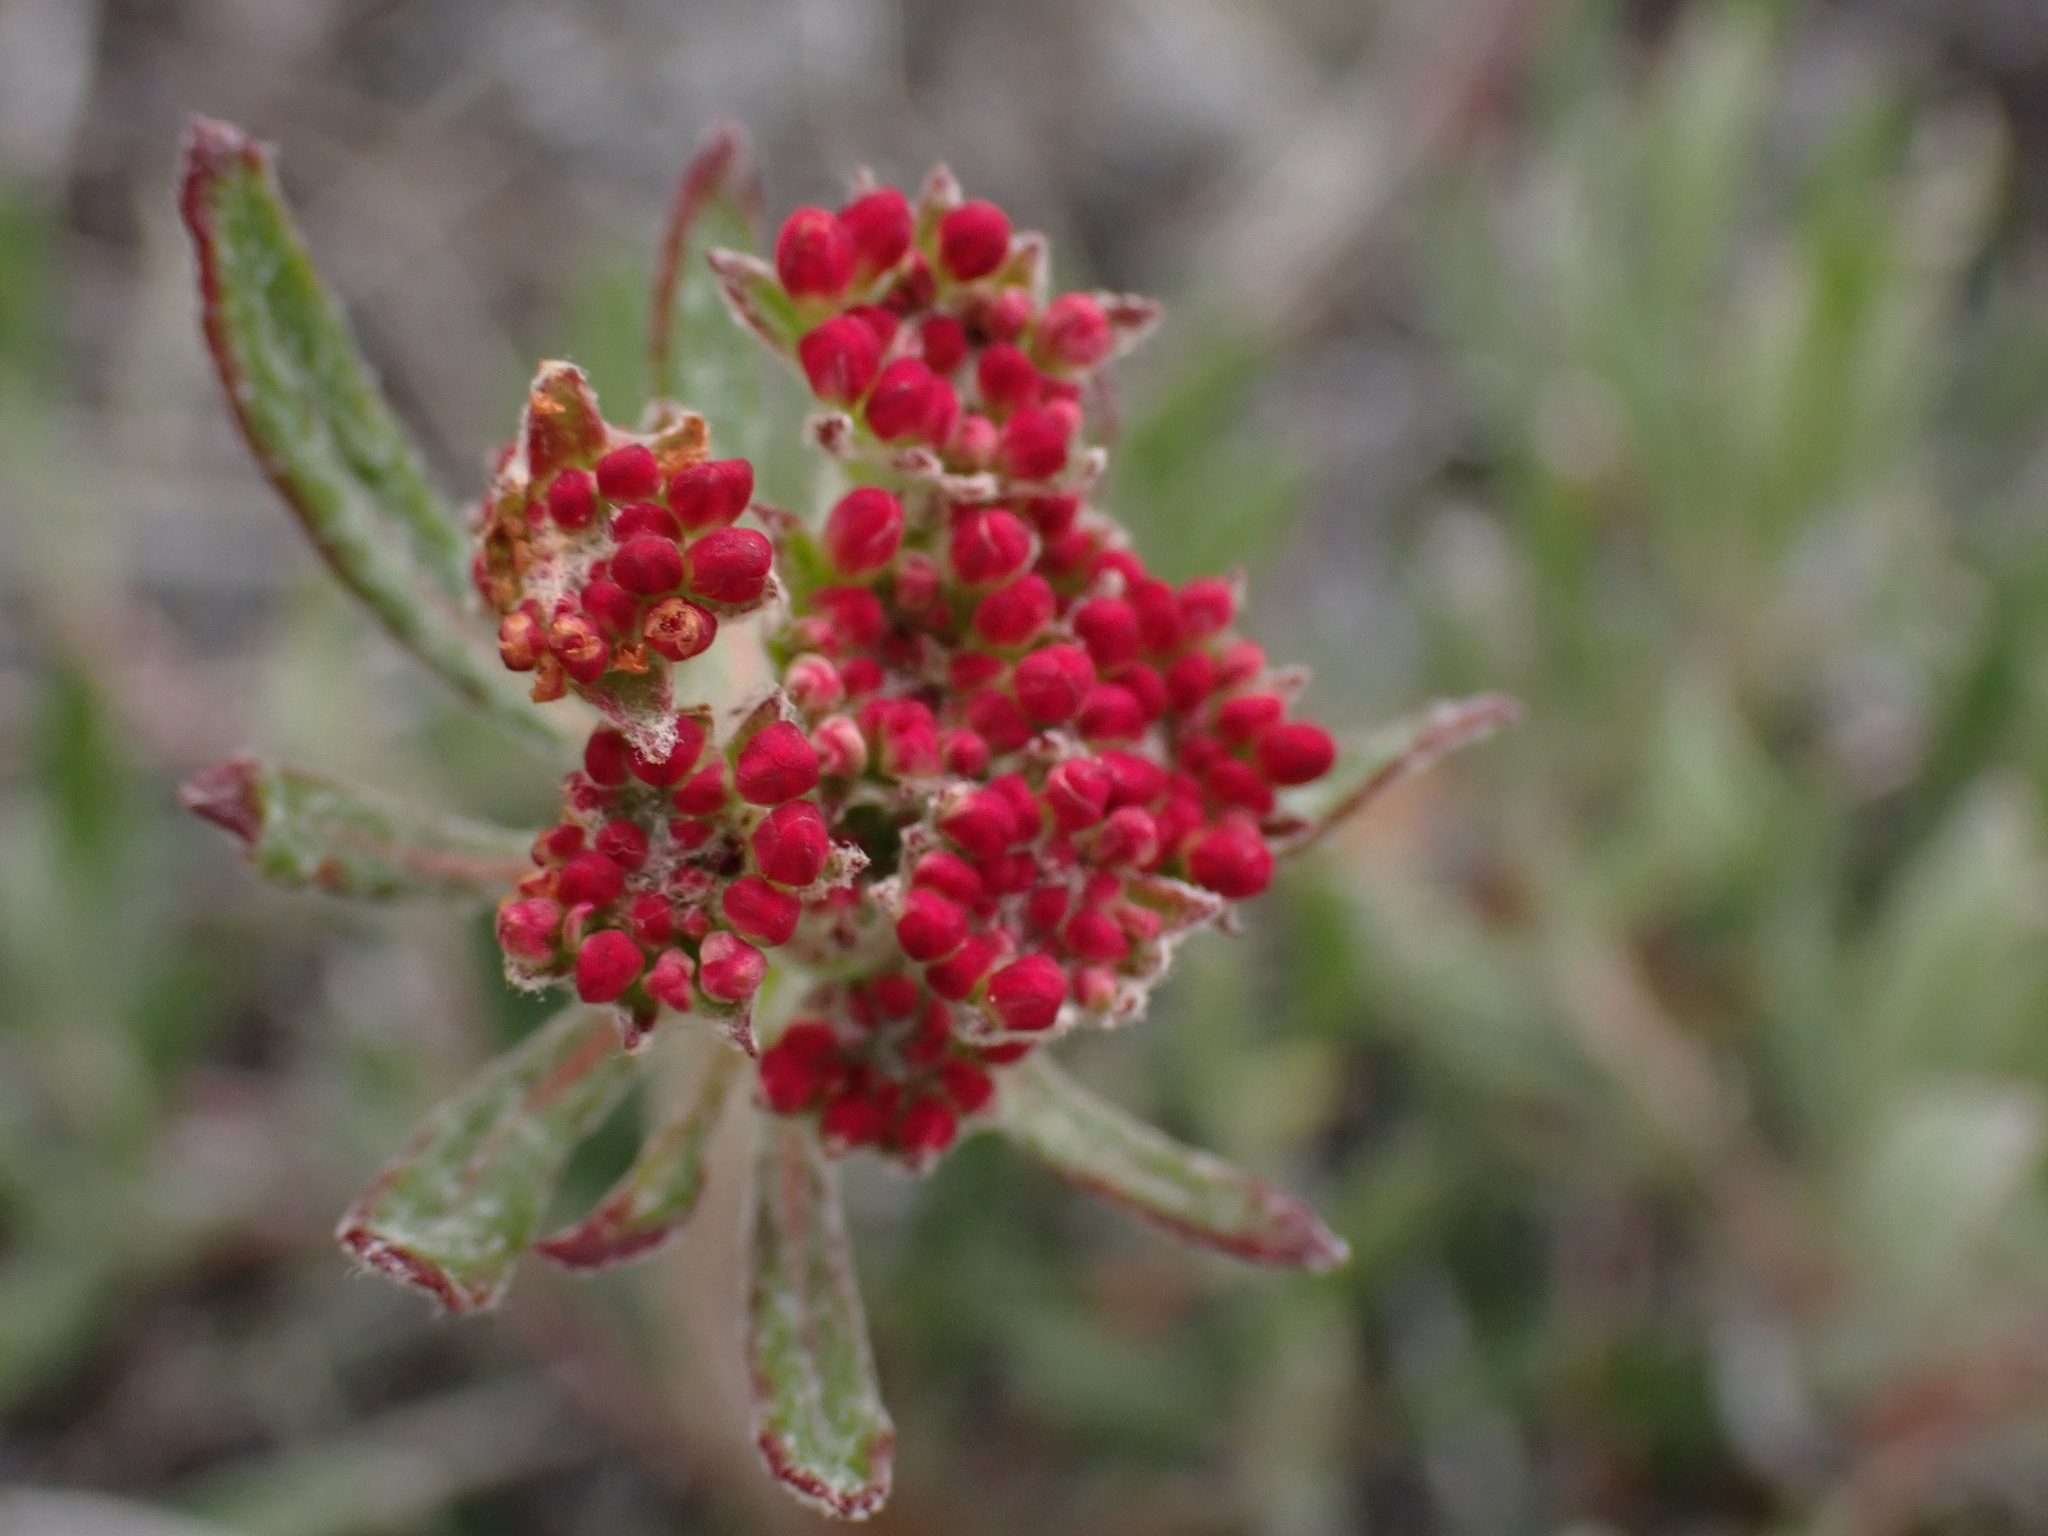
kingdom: Plantae
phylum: Tracheophyta
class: Magnoliopsida
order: Caryophyllales
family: Polygonaceae
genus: Eriogonum
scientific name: Eriogonum heracleoides
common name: Wyeth's buckwheat
